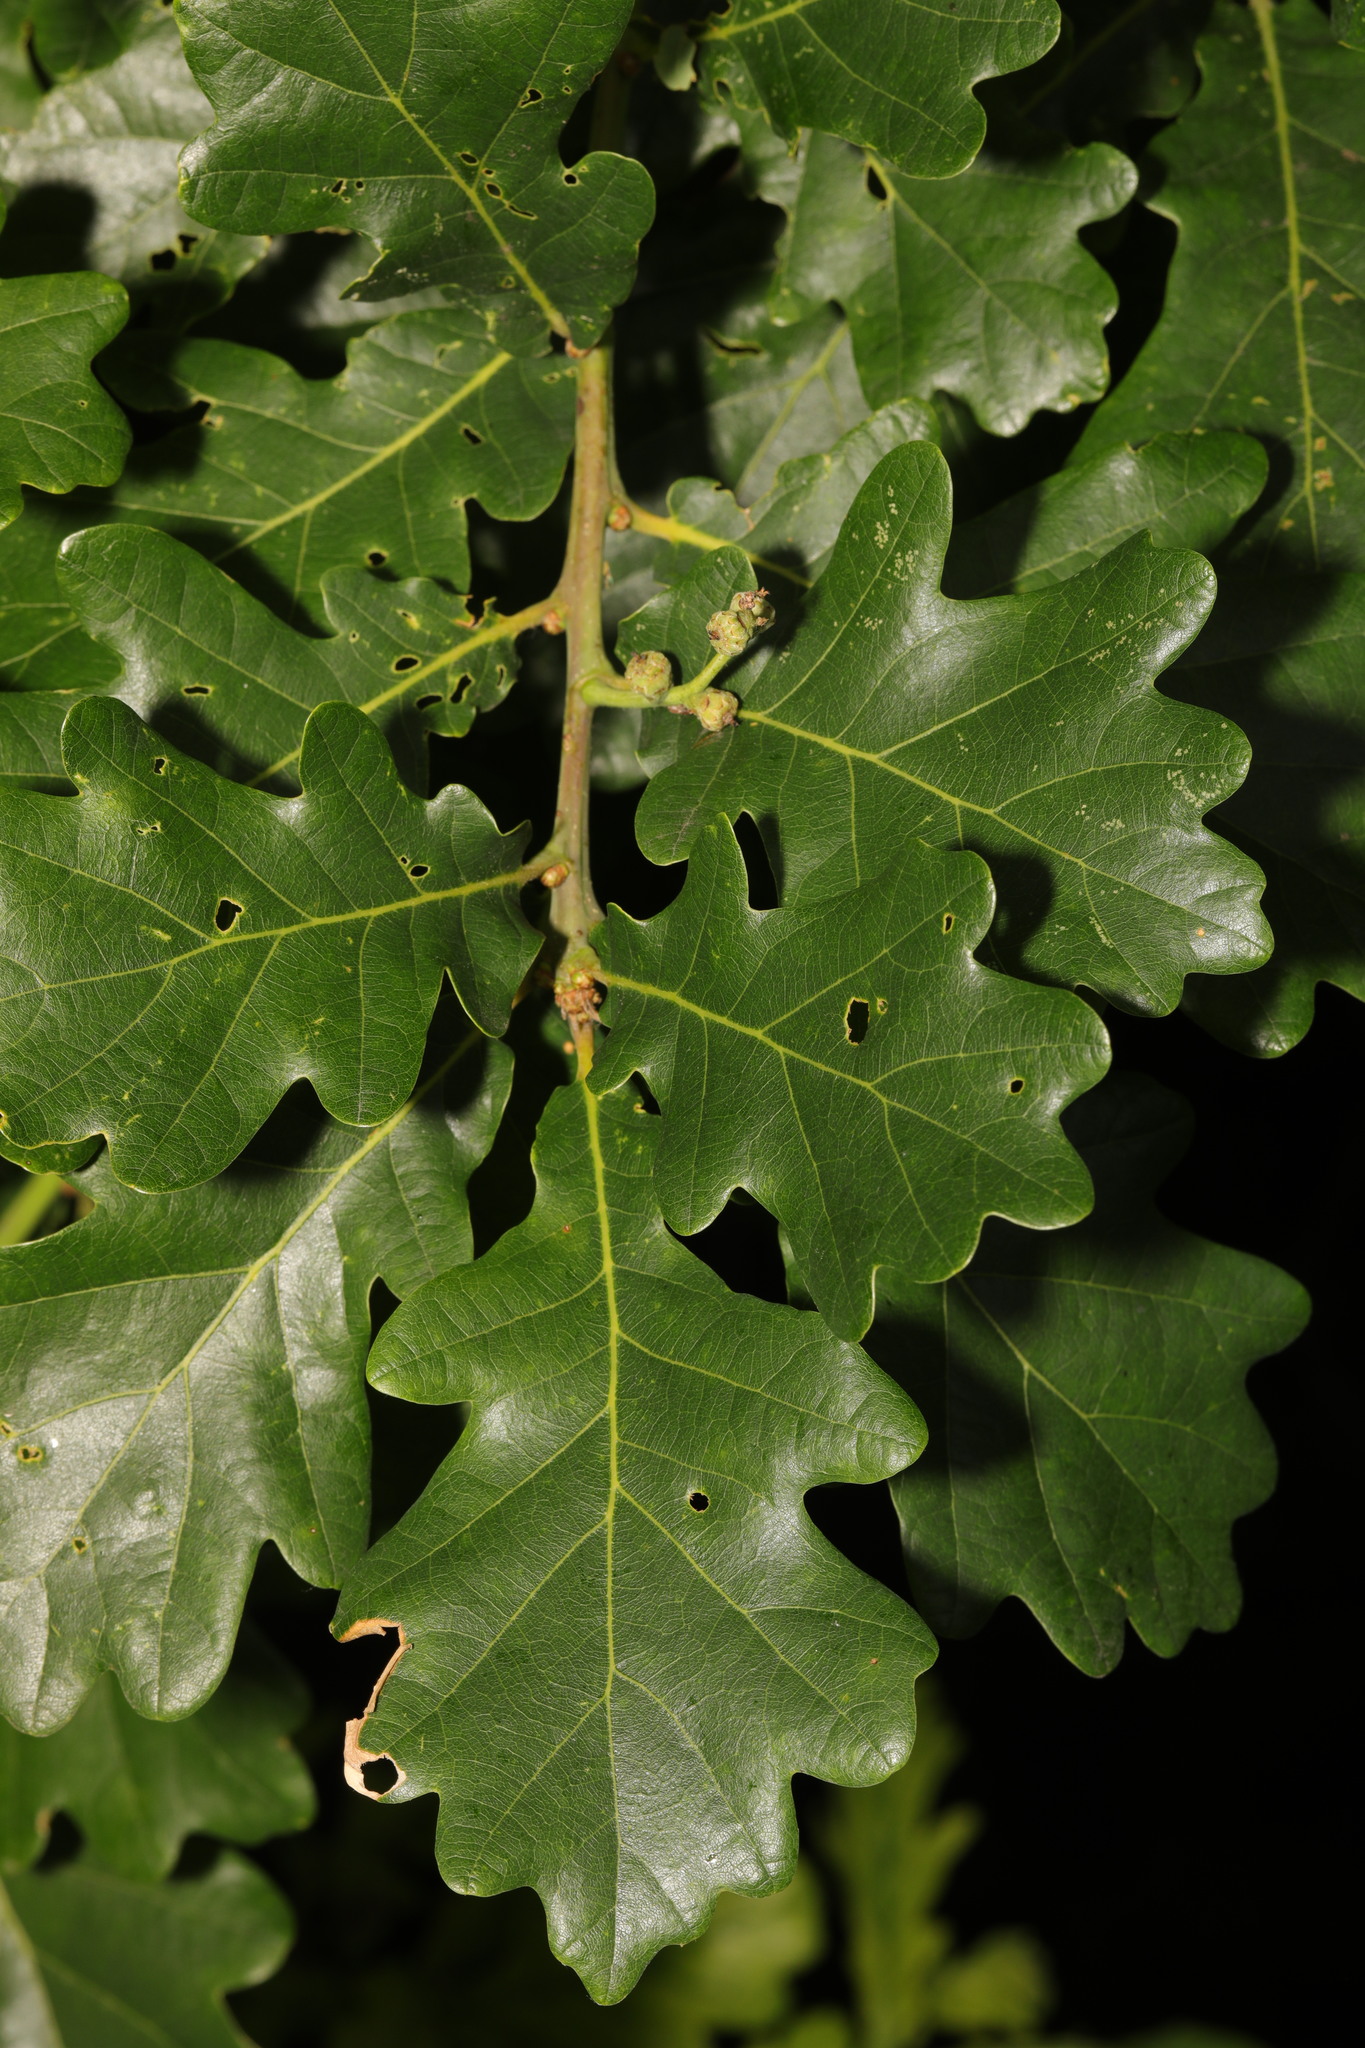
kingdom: Plantae
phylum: Tracheophyta
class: Magnoliopsida
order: Fagales
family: Fagaceae
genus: Quercus
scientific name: Quercus robur
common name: Pedunculate oak
